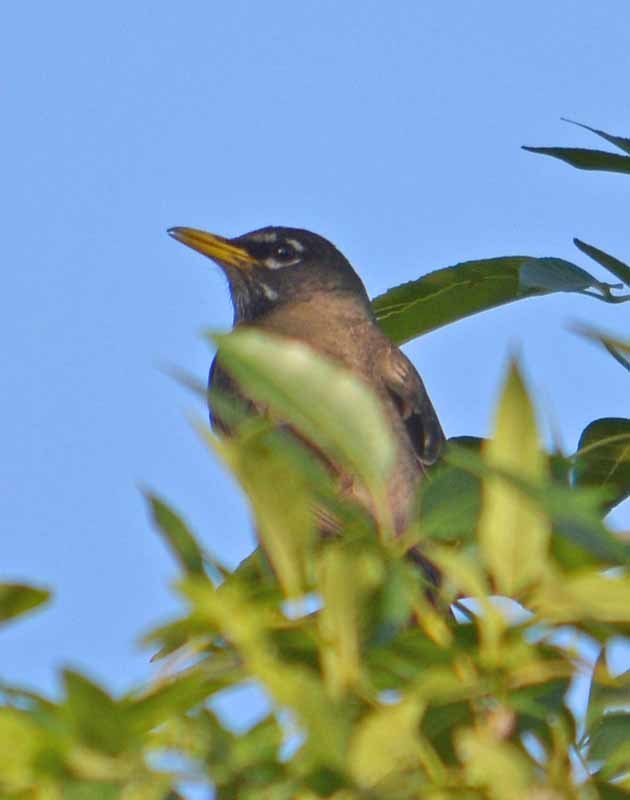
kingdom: Animalia
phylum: Chordata
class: Aves
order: Passeriformes
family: Turdidae
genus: Turdus
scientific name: Turdus migratorius
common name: American robin
